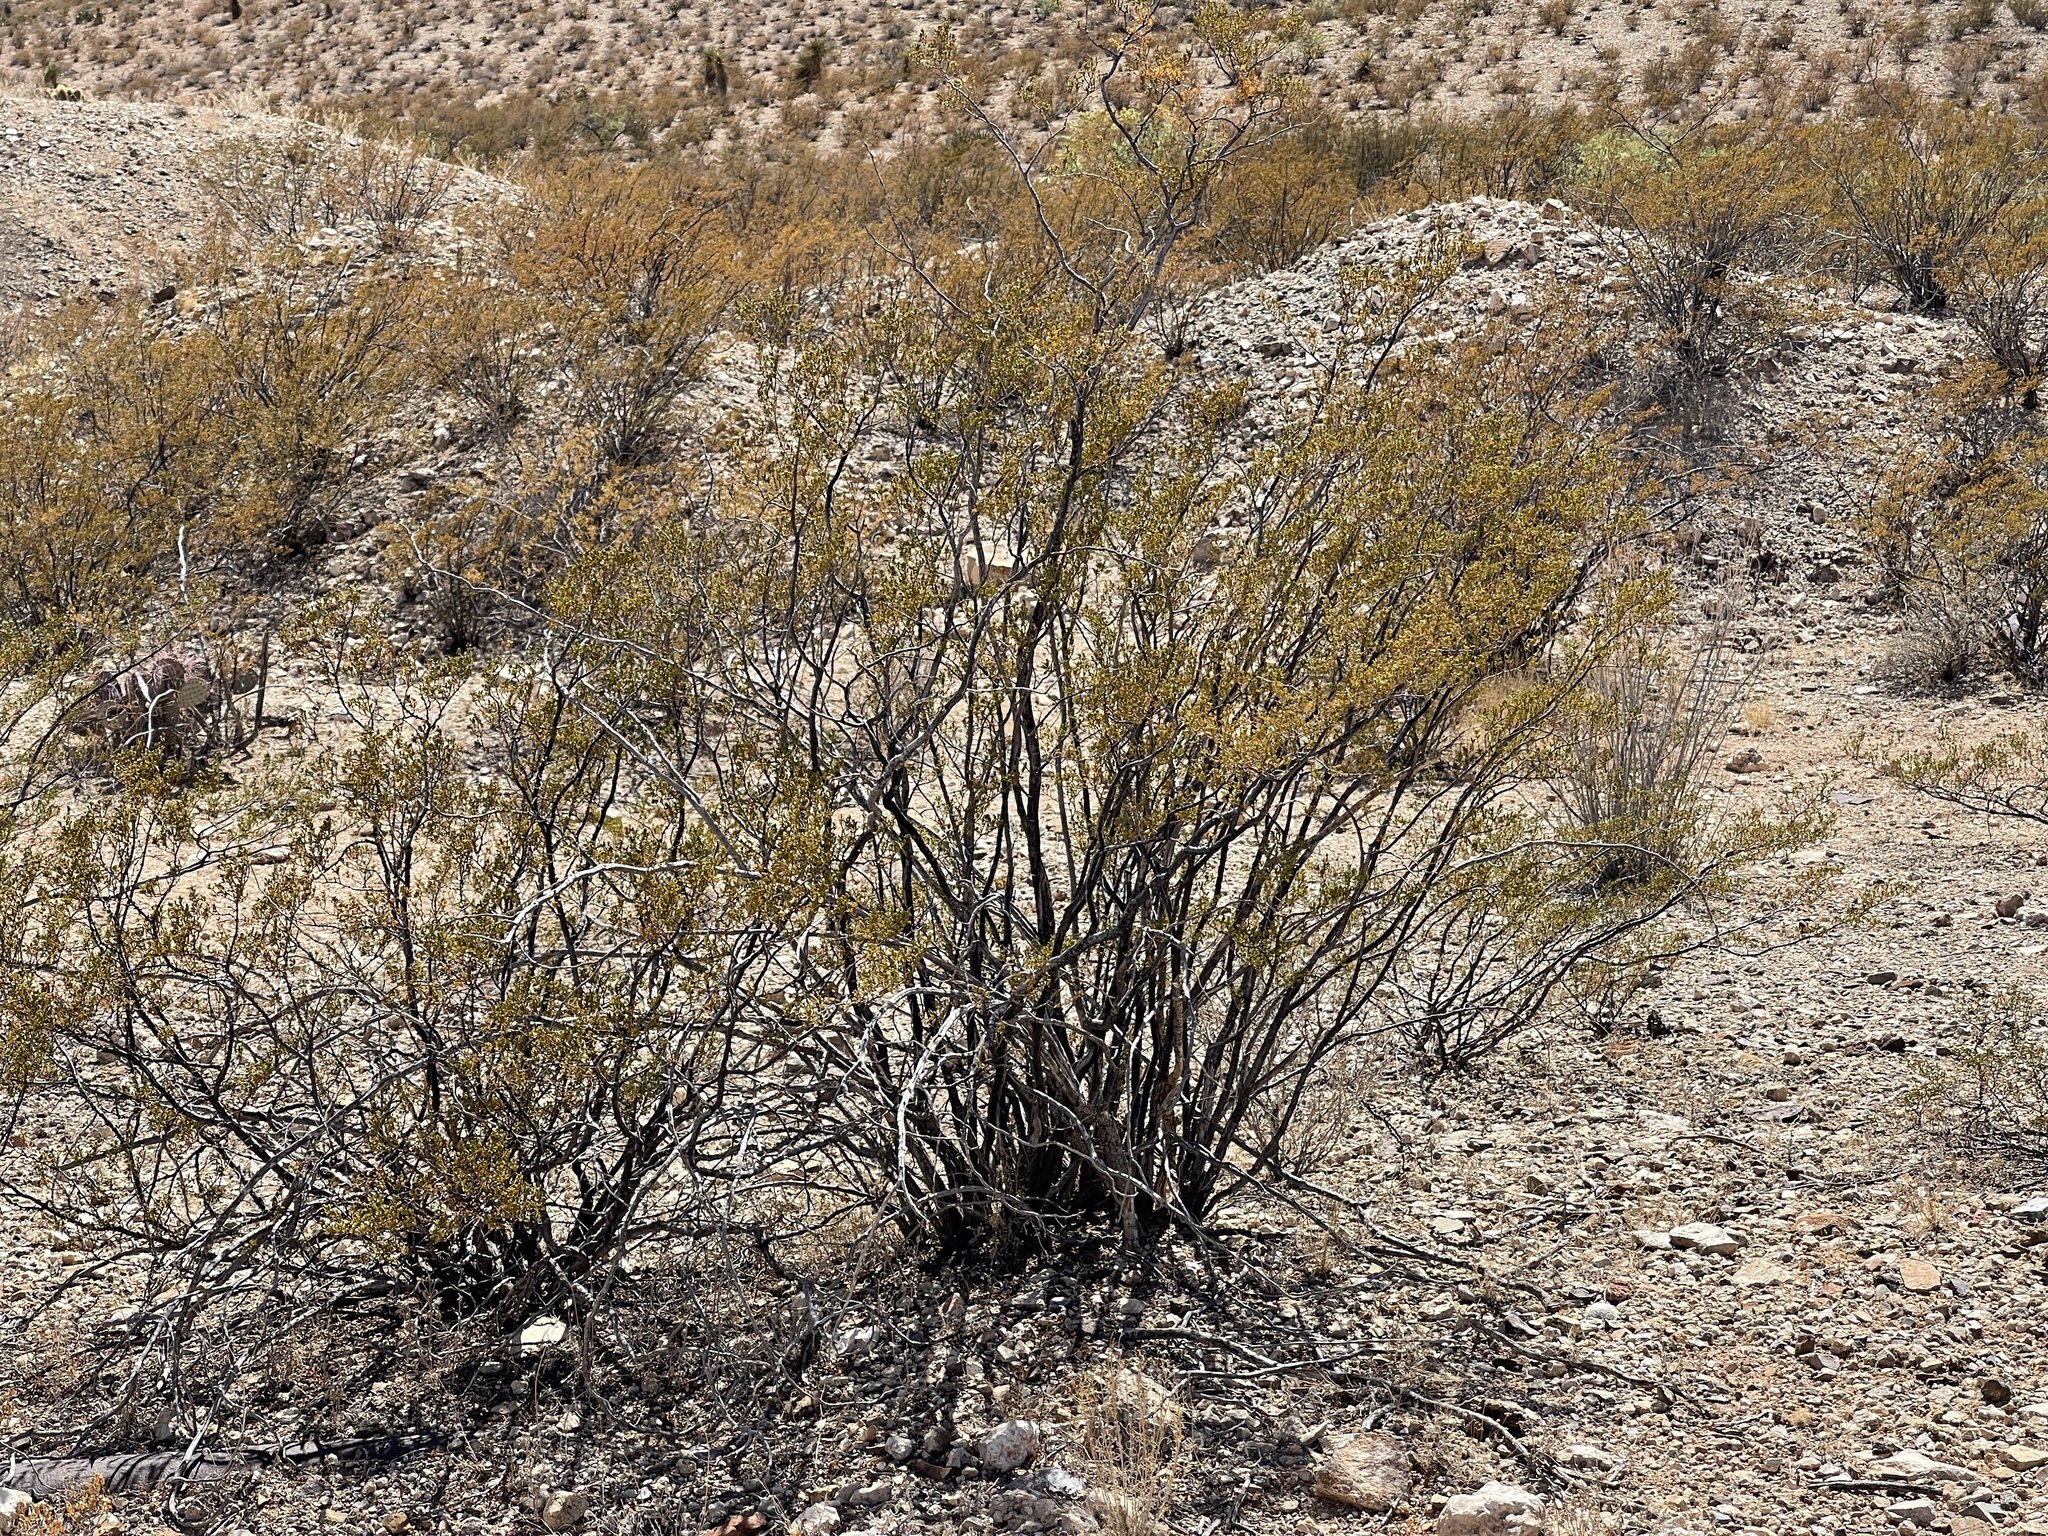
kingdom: Plantae
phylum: Tracheophyta
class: Magnoliopsida
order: Zygophyllales
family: Zygophyllaceae
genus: Larrea
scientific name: Larrea tridentata
